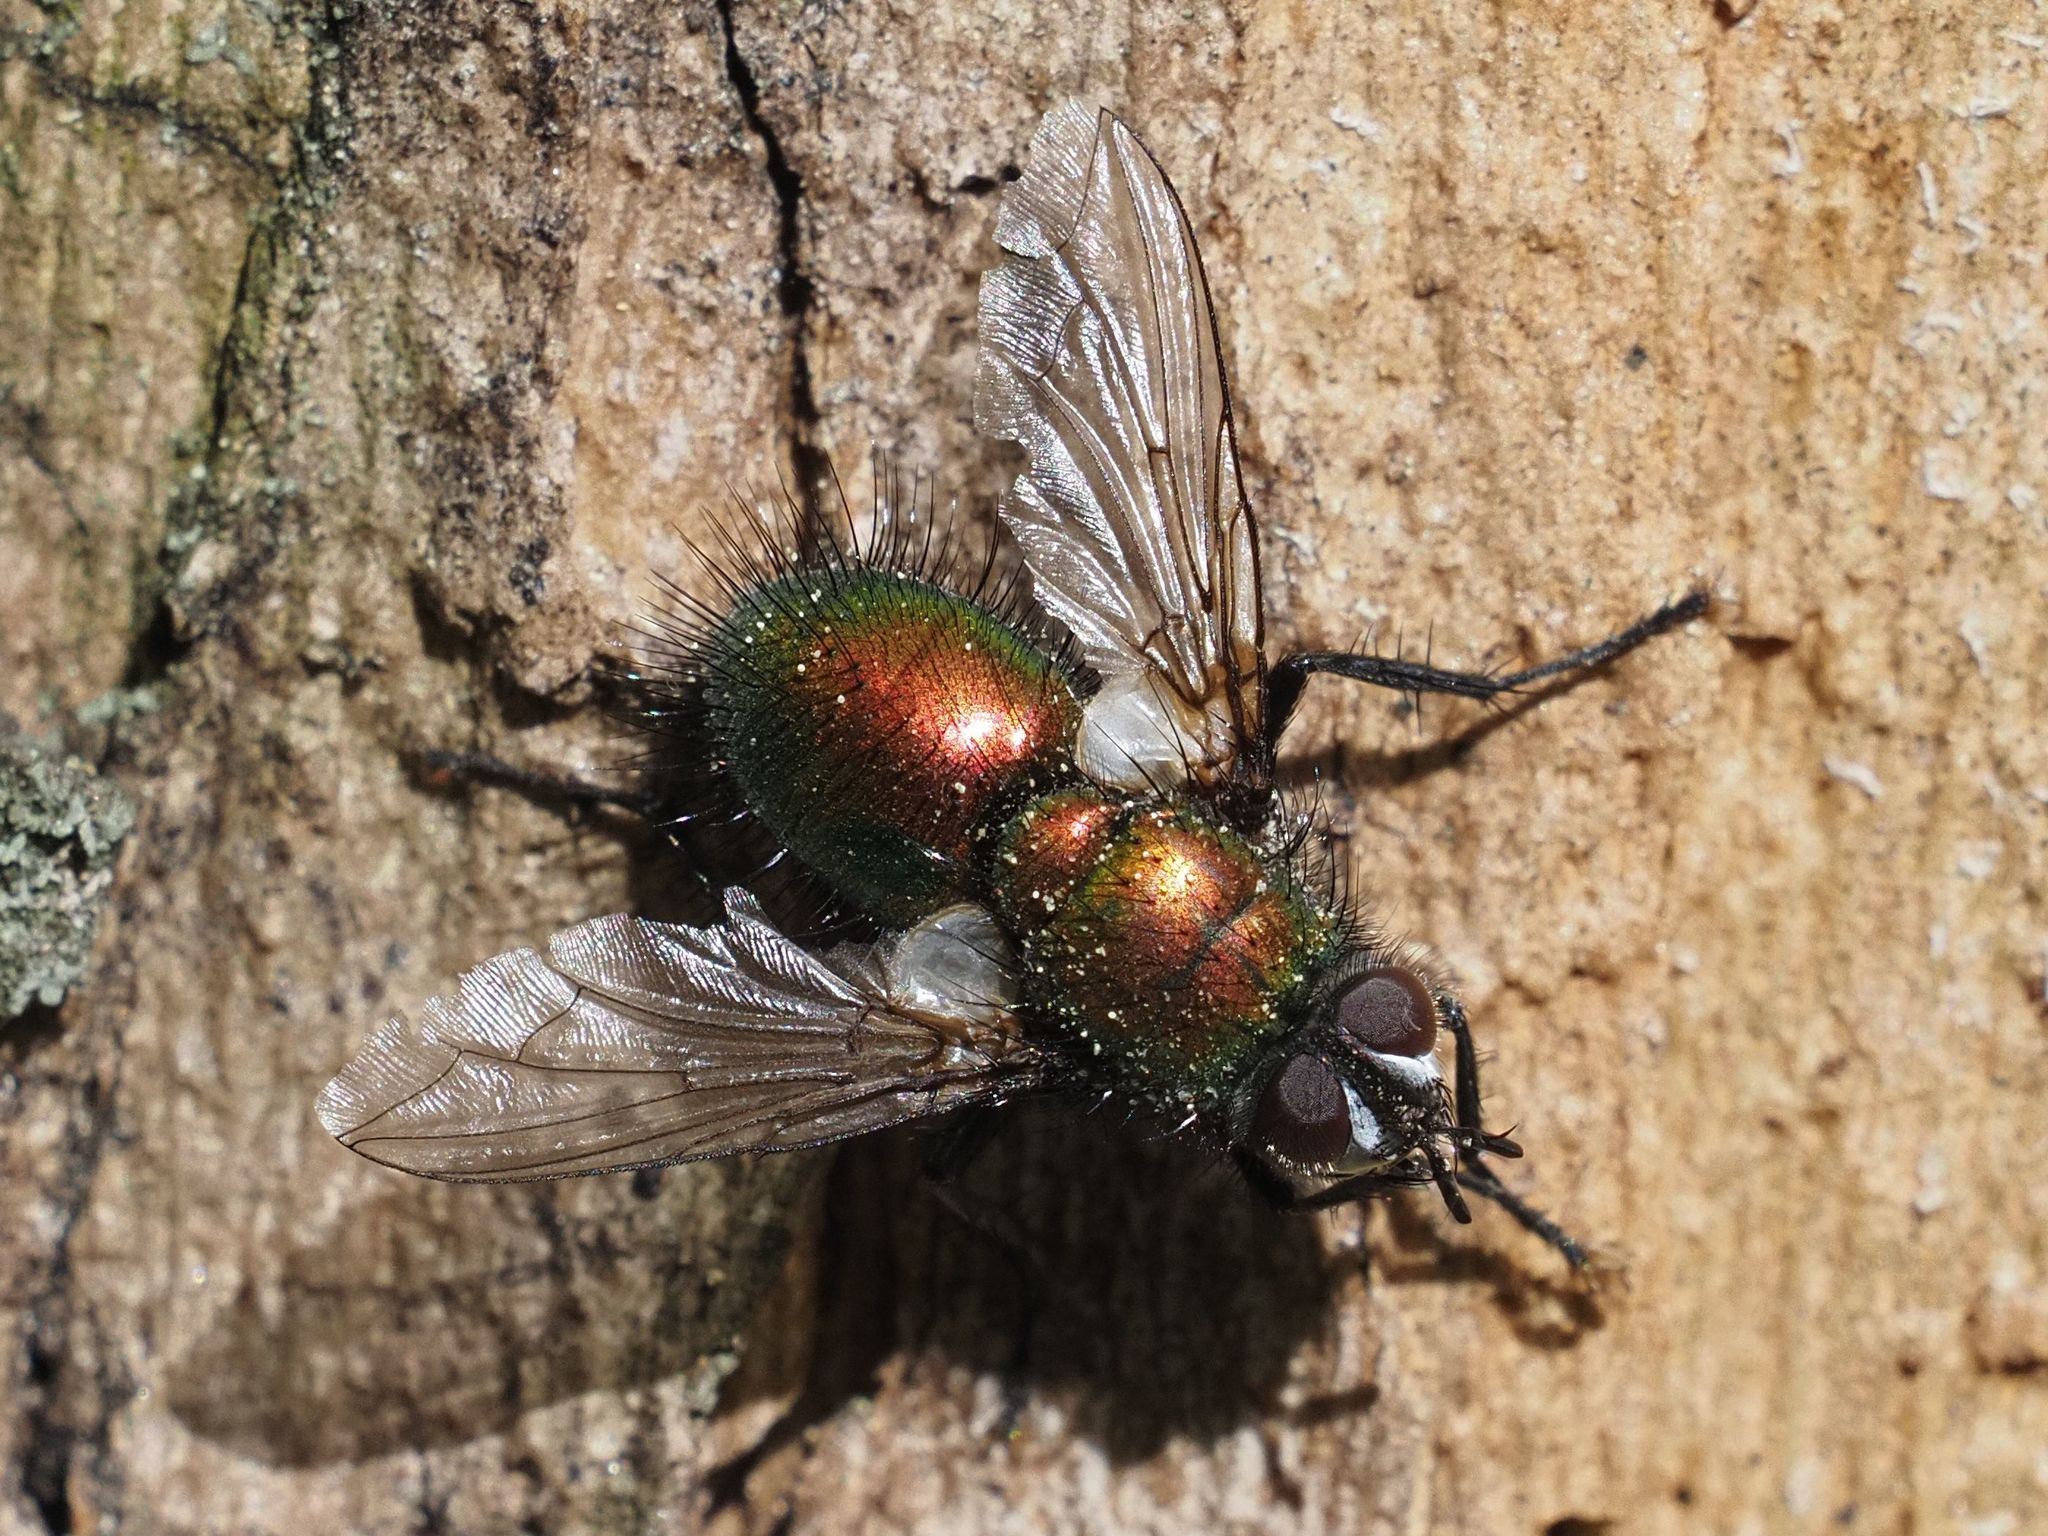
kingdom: Animalia
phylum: Arthropoda
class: Insecta
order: Diptera
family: Tachinidae
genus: Gymnocheta
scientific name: Gymnocheta viridis
